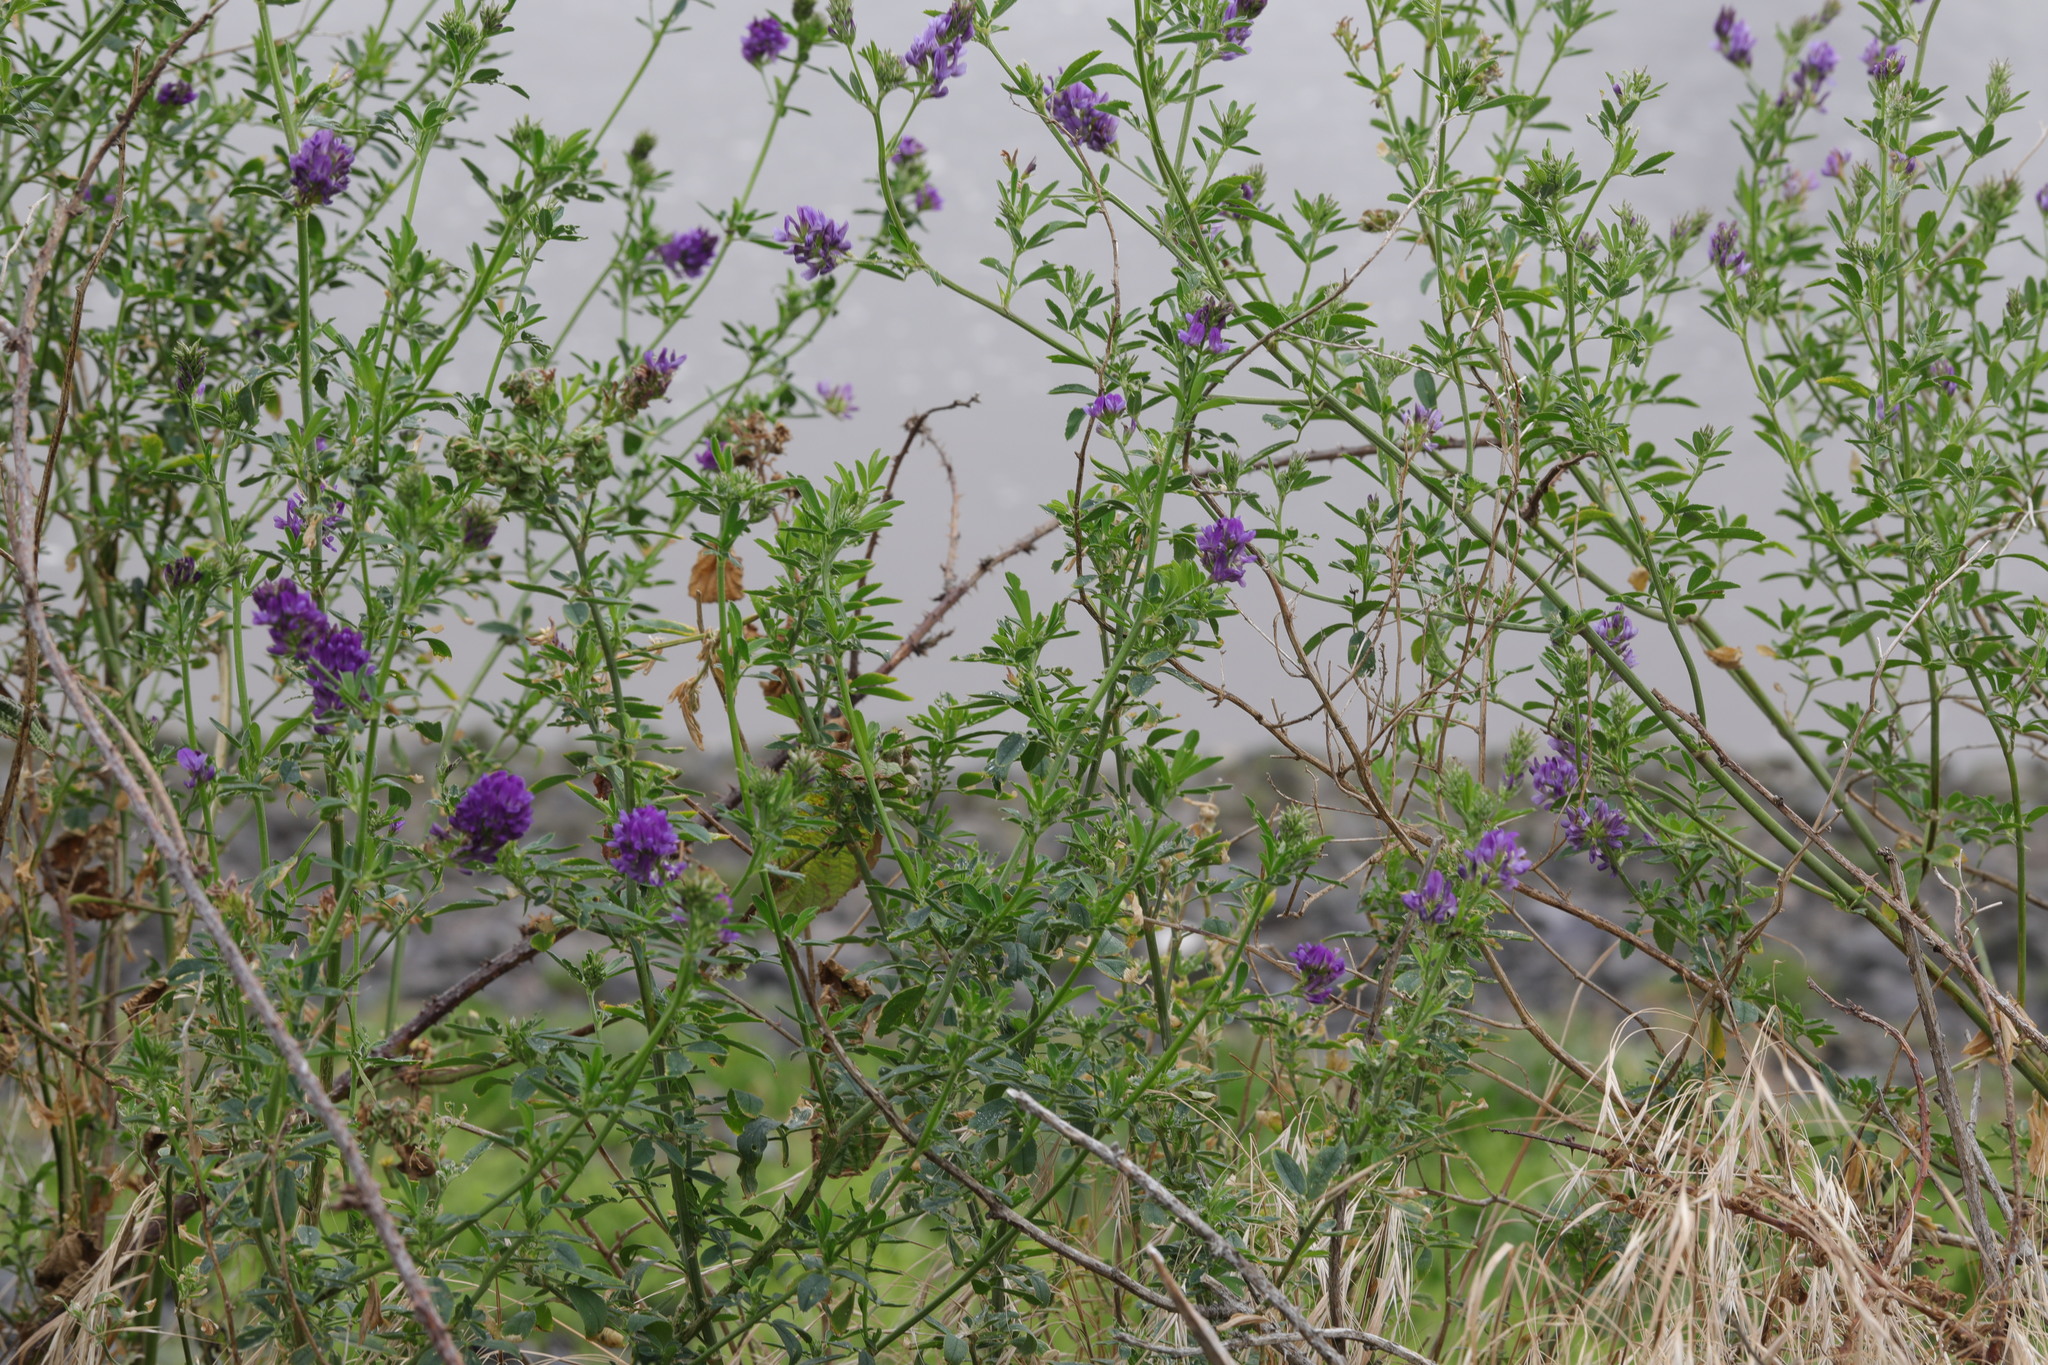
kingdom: Plantae
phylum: Tracheophyta
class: Magnoliopsida
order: Fabales
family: Fabaceae
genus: Medicago
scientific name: Medicago sativa
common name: Alfalfa
